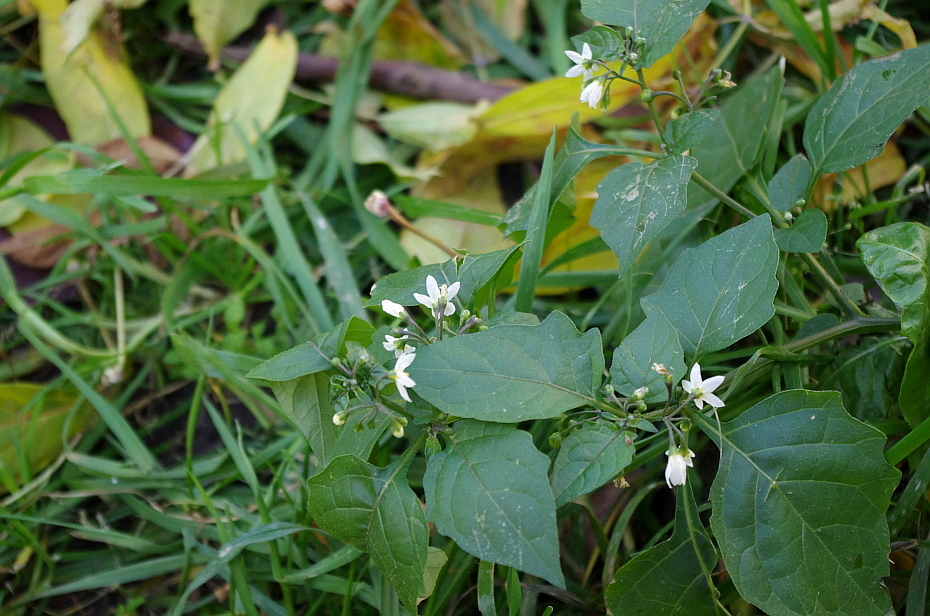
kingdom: Plantae
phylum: Tracheophyta
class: Magnoliopsida
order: Solanales
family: Solanaceae
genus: Solanum
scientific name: Solanum nigrum
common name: Black nightshade
